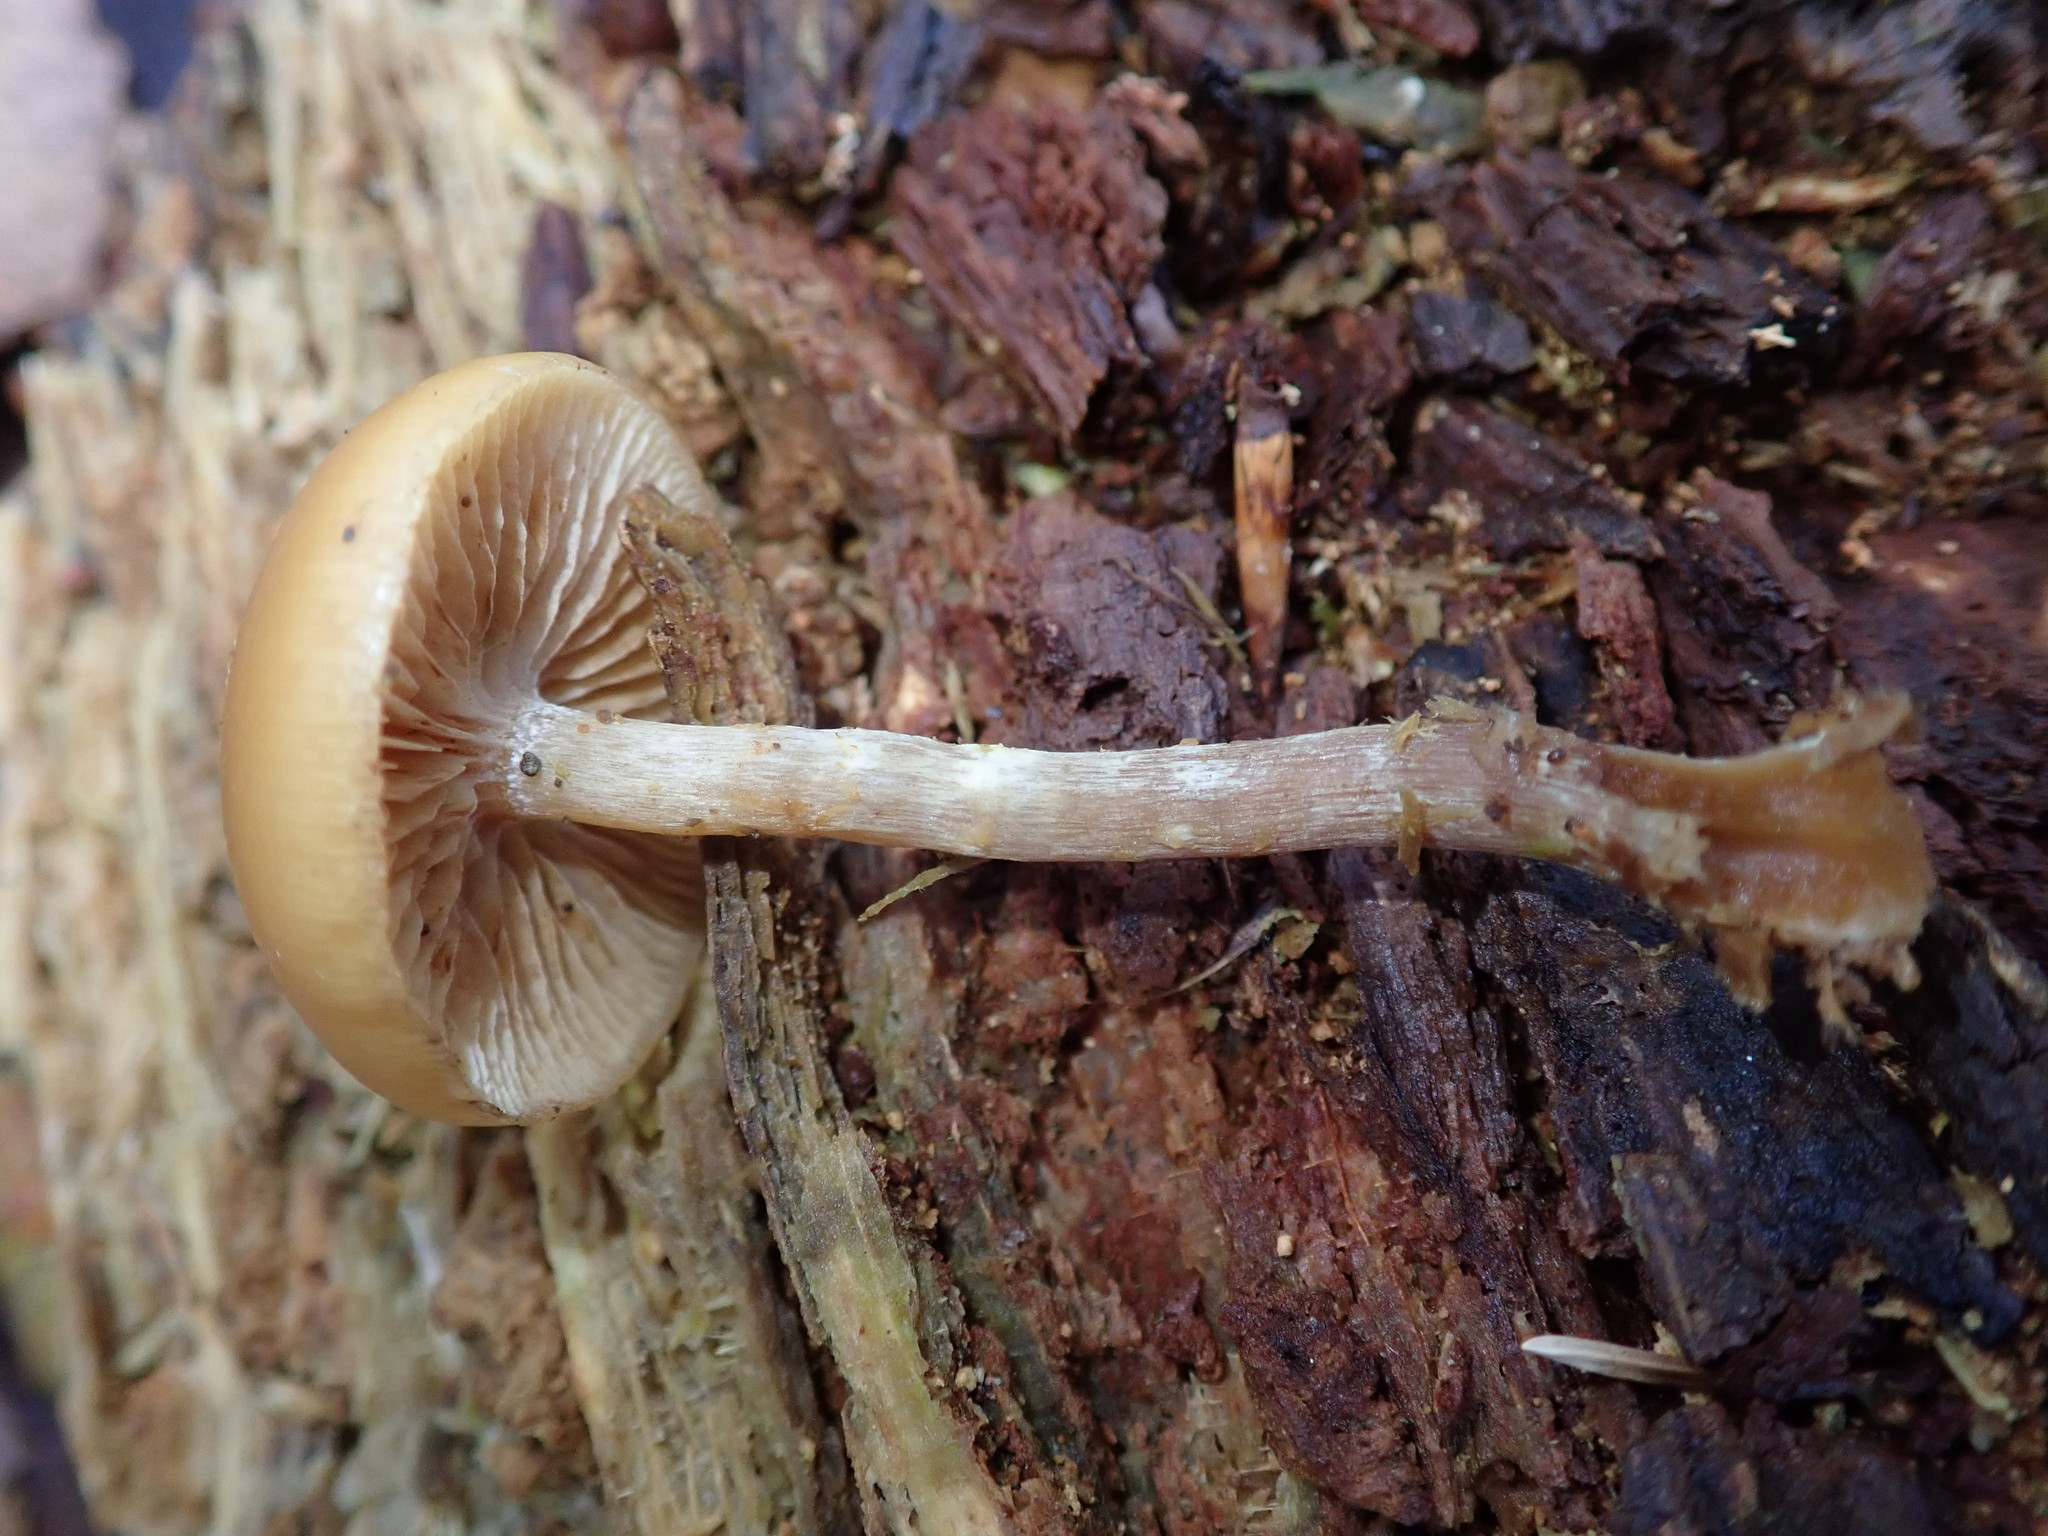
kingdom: Fungi
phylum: Basidiomycota
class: Agaricomycetes
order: Agaricales
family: Hymenogastraceae
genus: Galerina
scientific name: Galerina marginata
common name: Funeral bell
